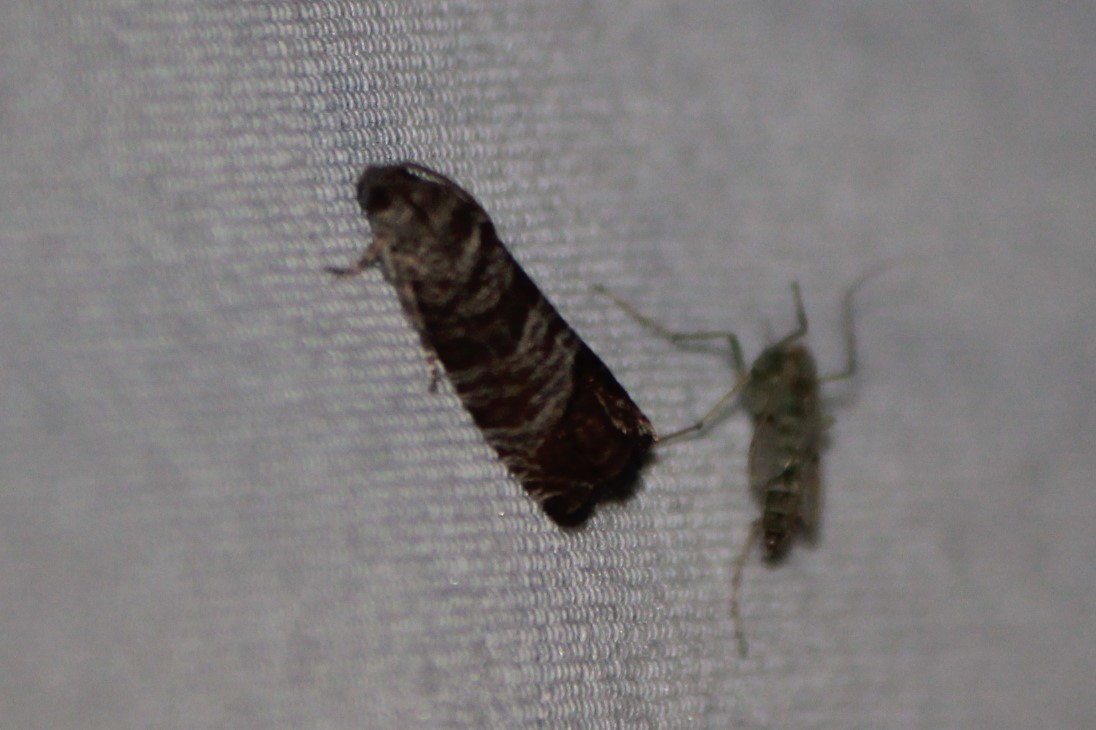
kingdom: Animalia
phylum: Arthropoda
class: Insecta
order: Lepidoptera
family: Tortricidae
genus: Cydia
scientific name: Cydia pomonella
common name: Codling moth
